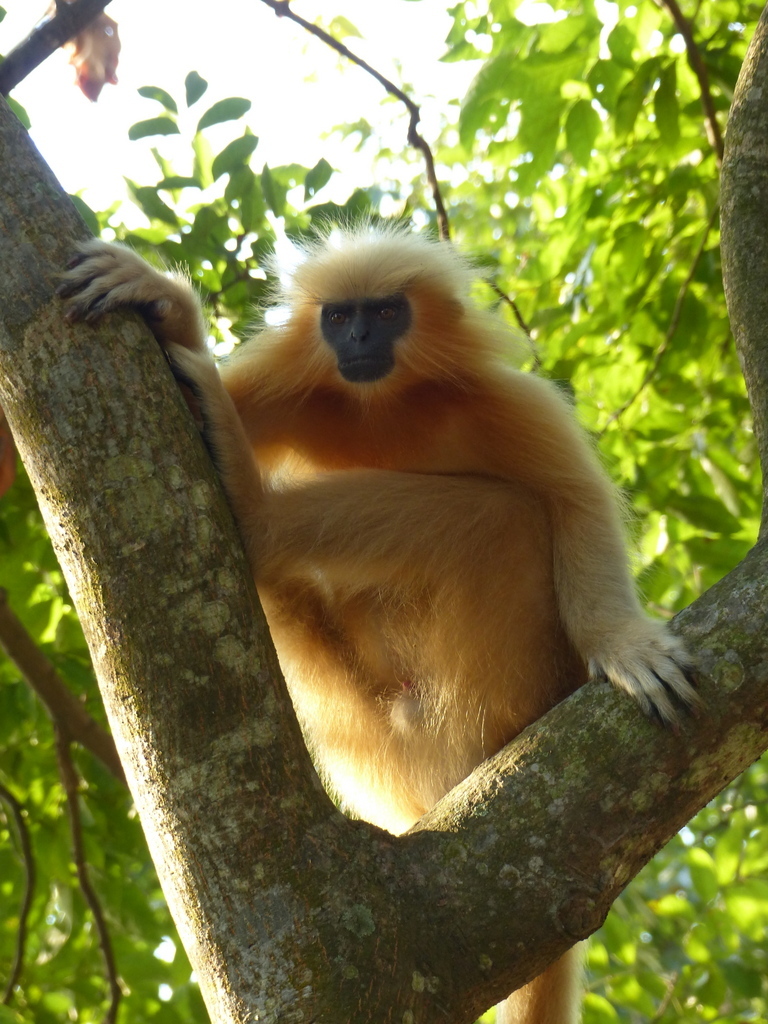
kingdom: Animalia
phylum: Chordata
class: Mammalia
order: Primates
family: Cercopithecidae
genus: Trachypithecus
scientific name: Trachypithecus geei
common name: Gee's golden langur
